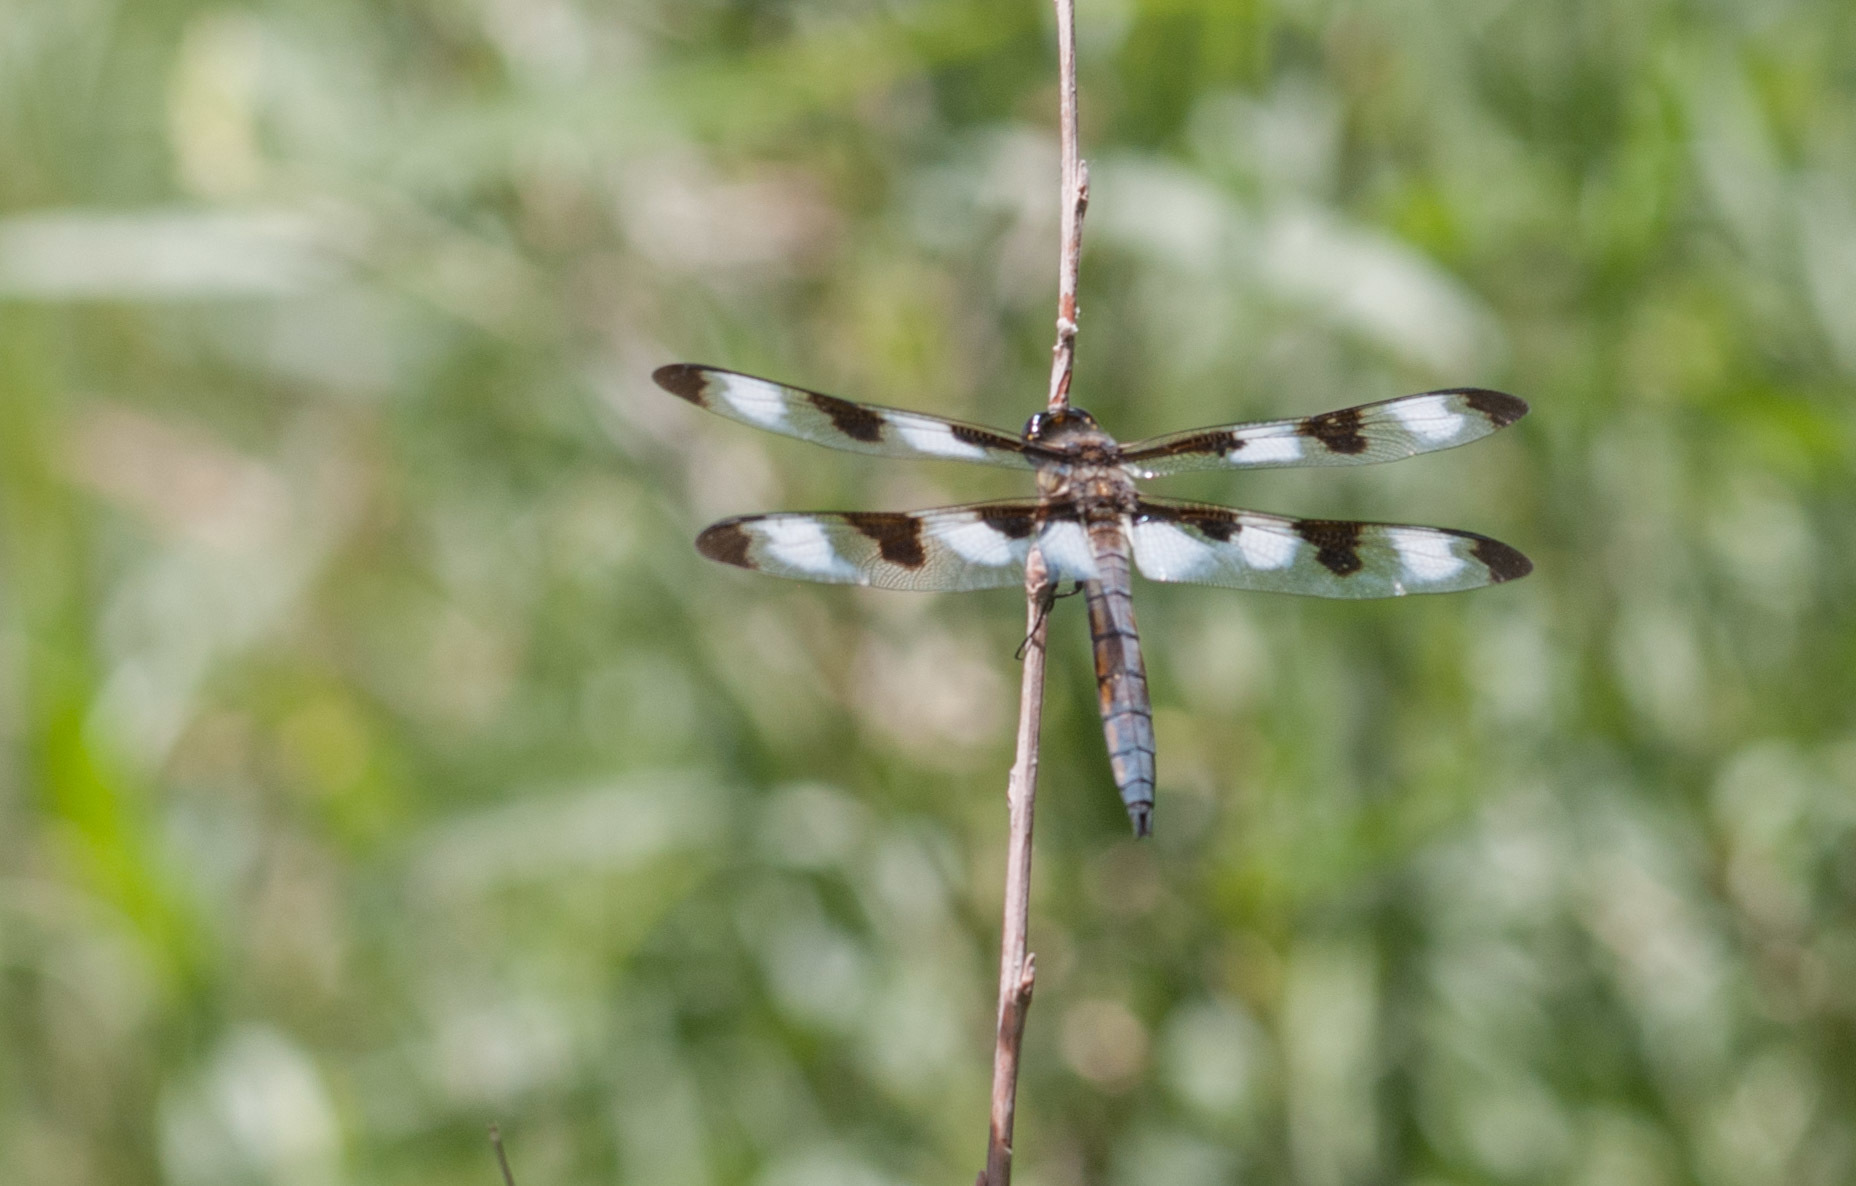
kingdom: Animalia
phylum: Arthropoda
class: Insecta
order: Odonata
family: Libellulidae
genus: Libellula
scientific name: Libellula pulchella
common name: Twelve-spotted skimmer
